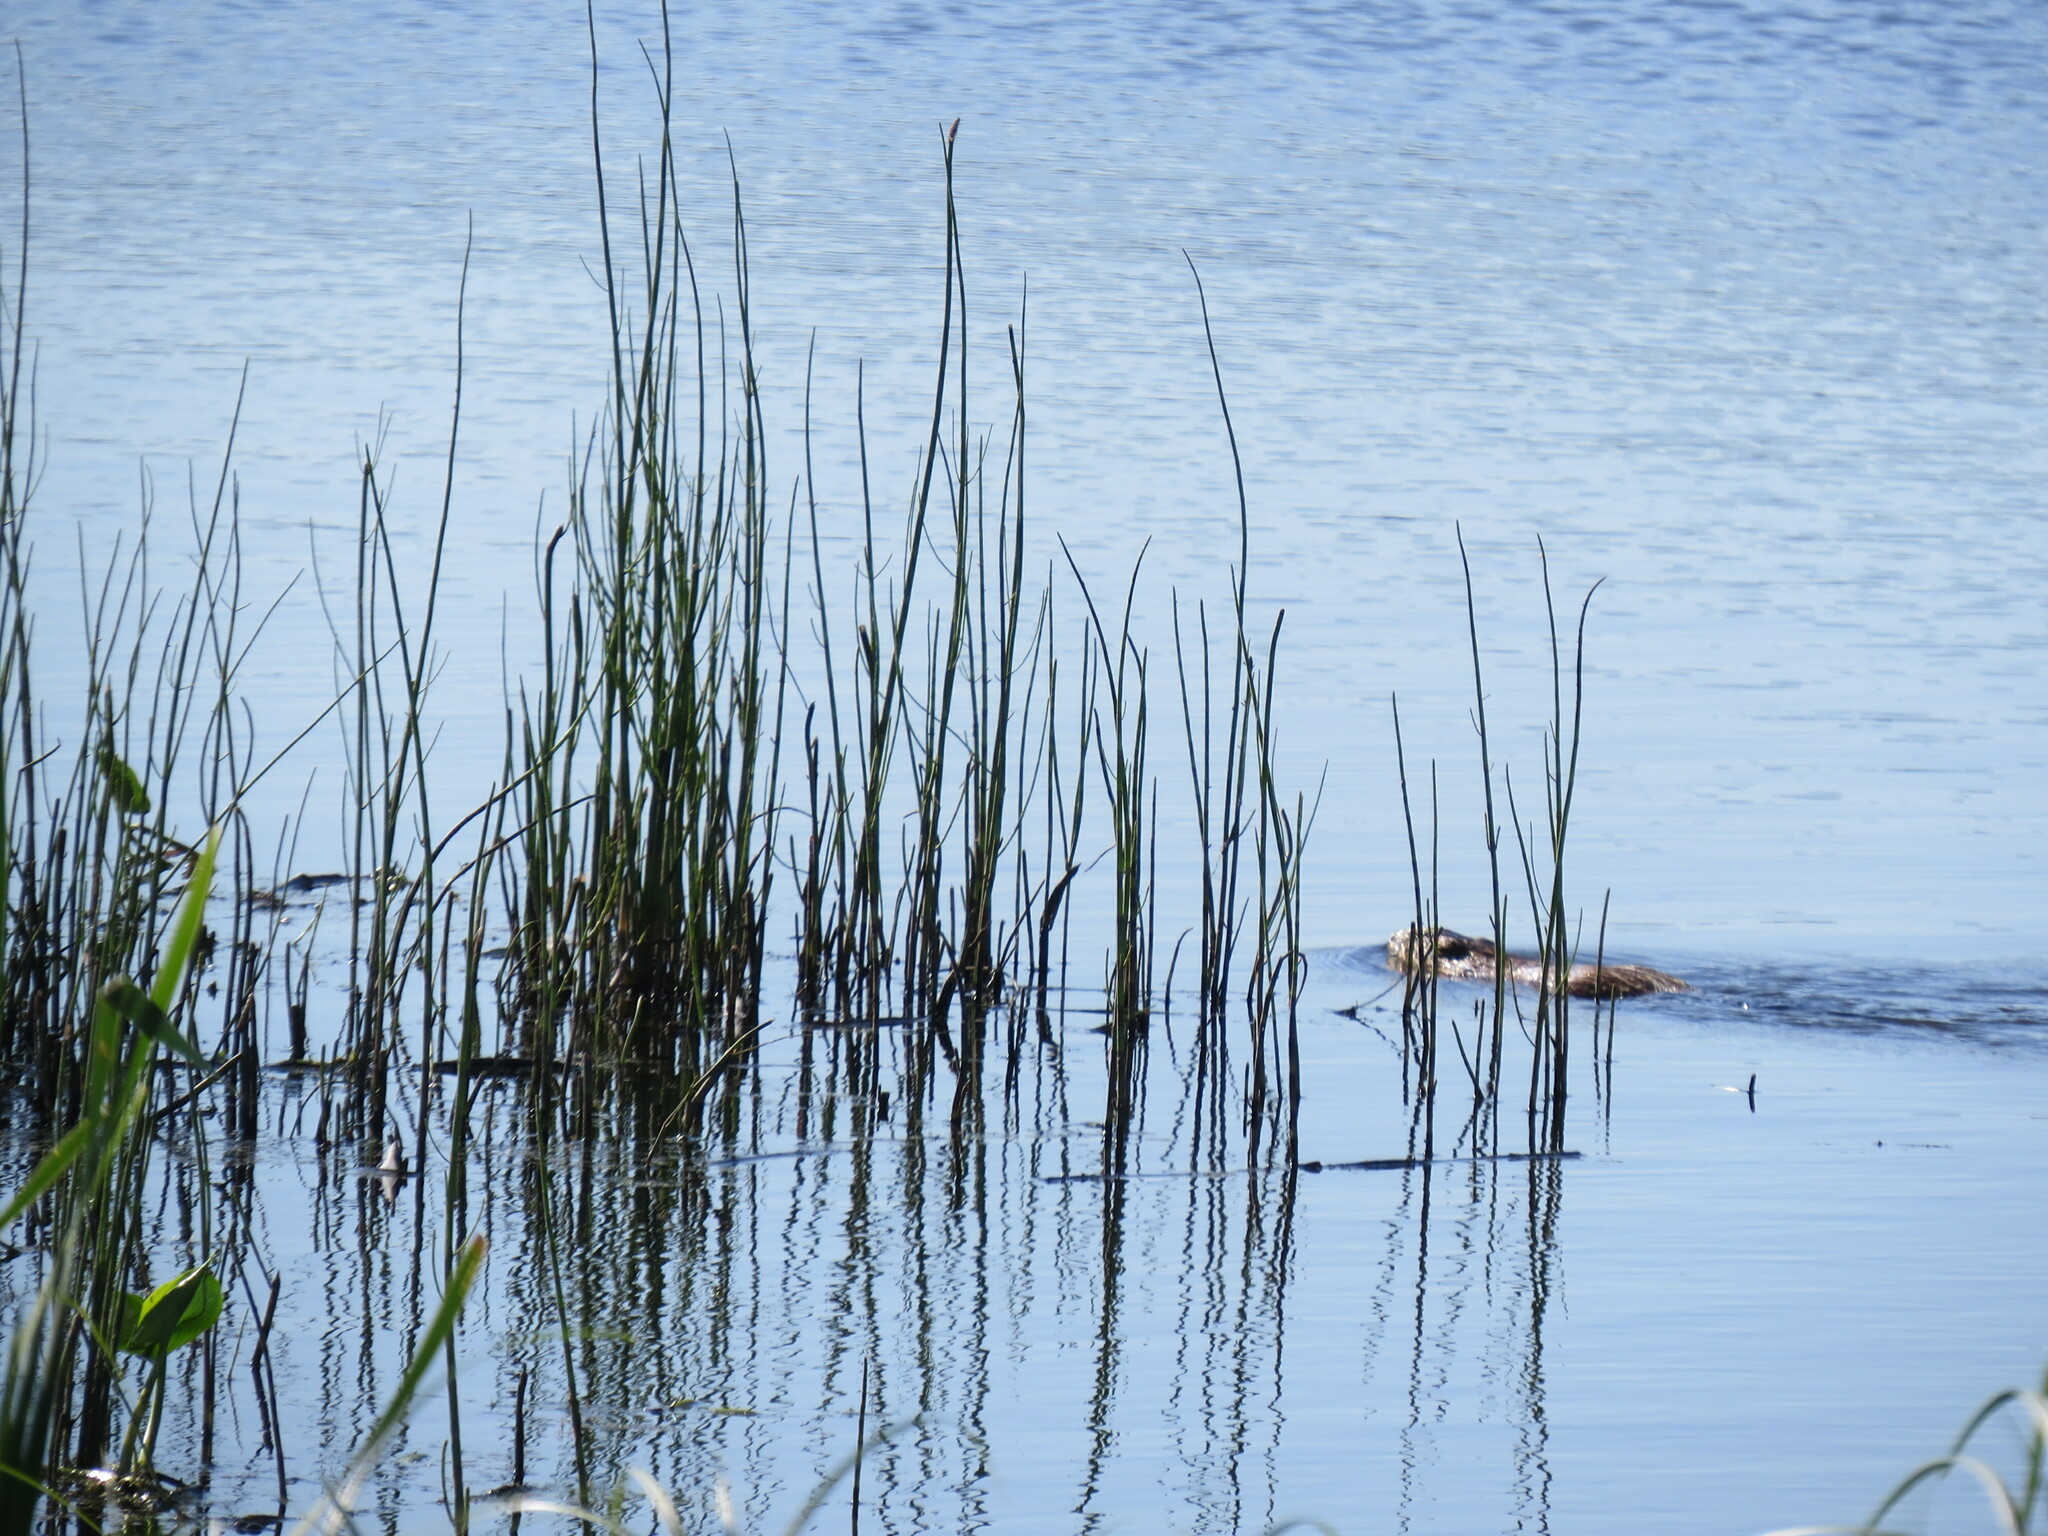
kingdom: Animalia
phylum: Chordata
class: Mammalia
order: Rodentia
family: Cricetidae
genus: Ondatra
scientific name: Ondatra zibethicus
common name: Muskrat
